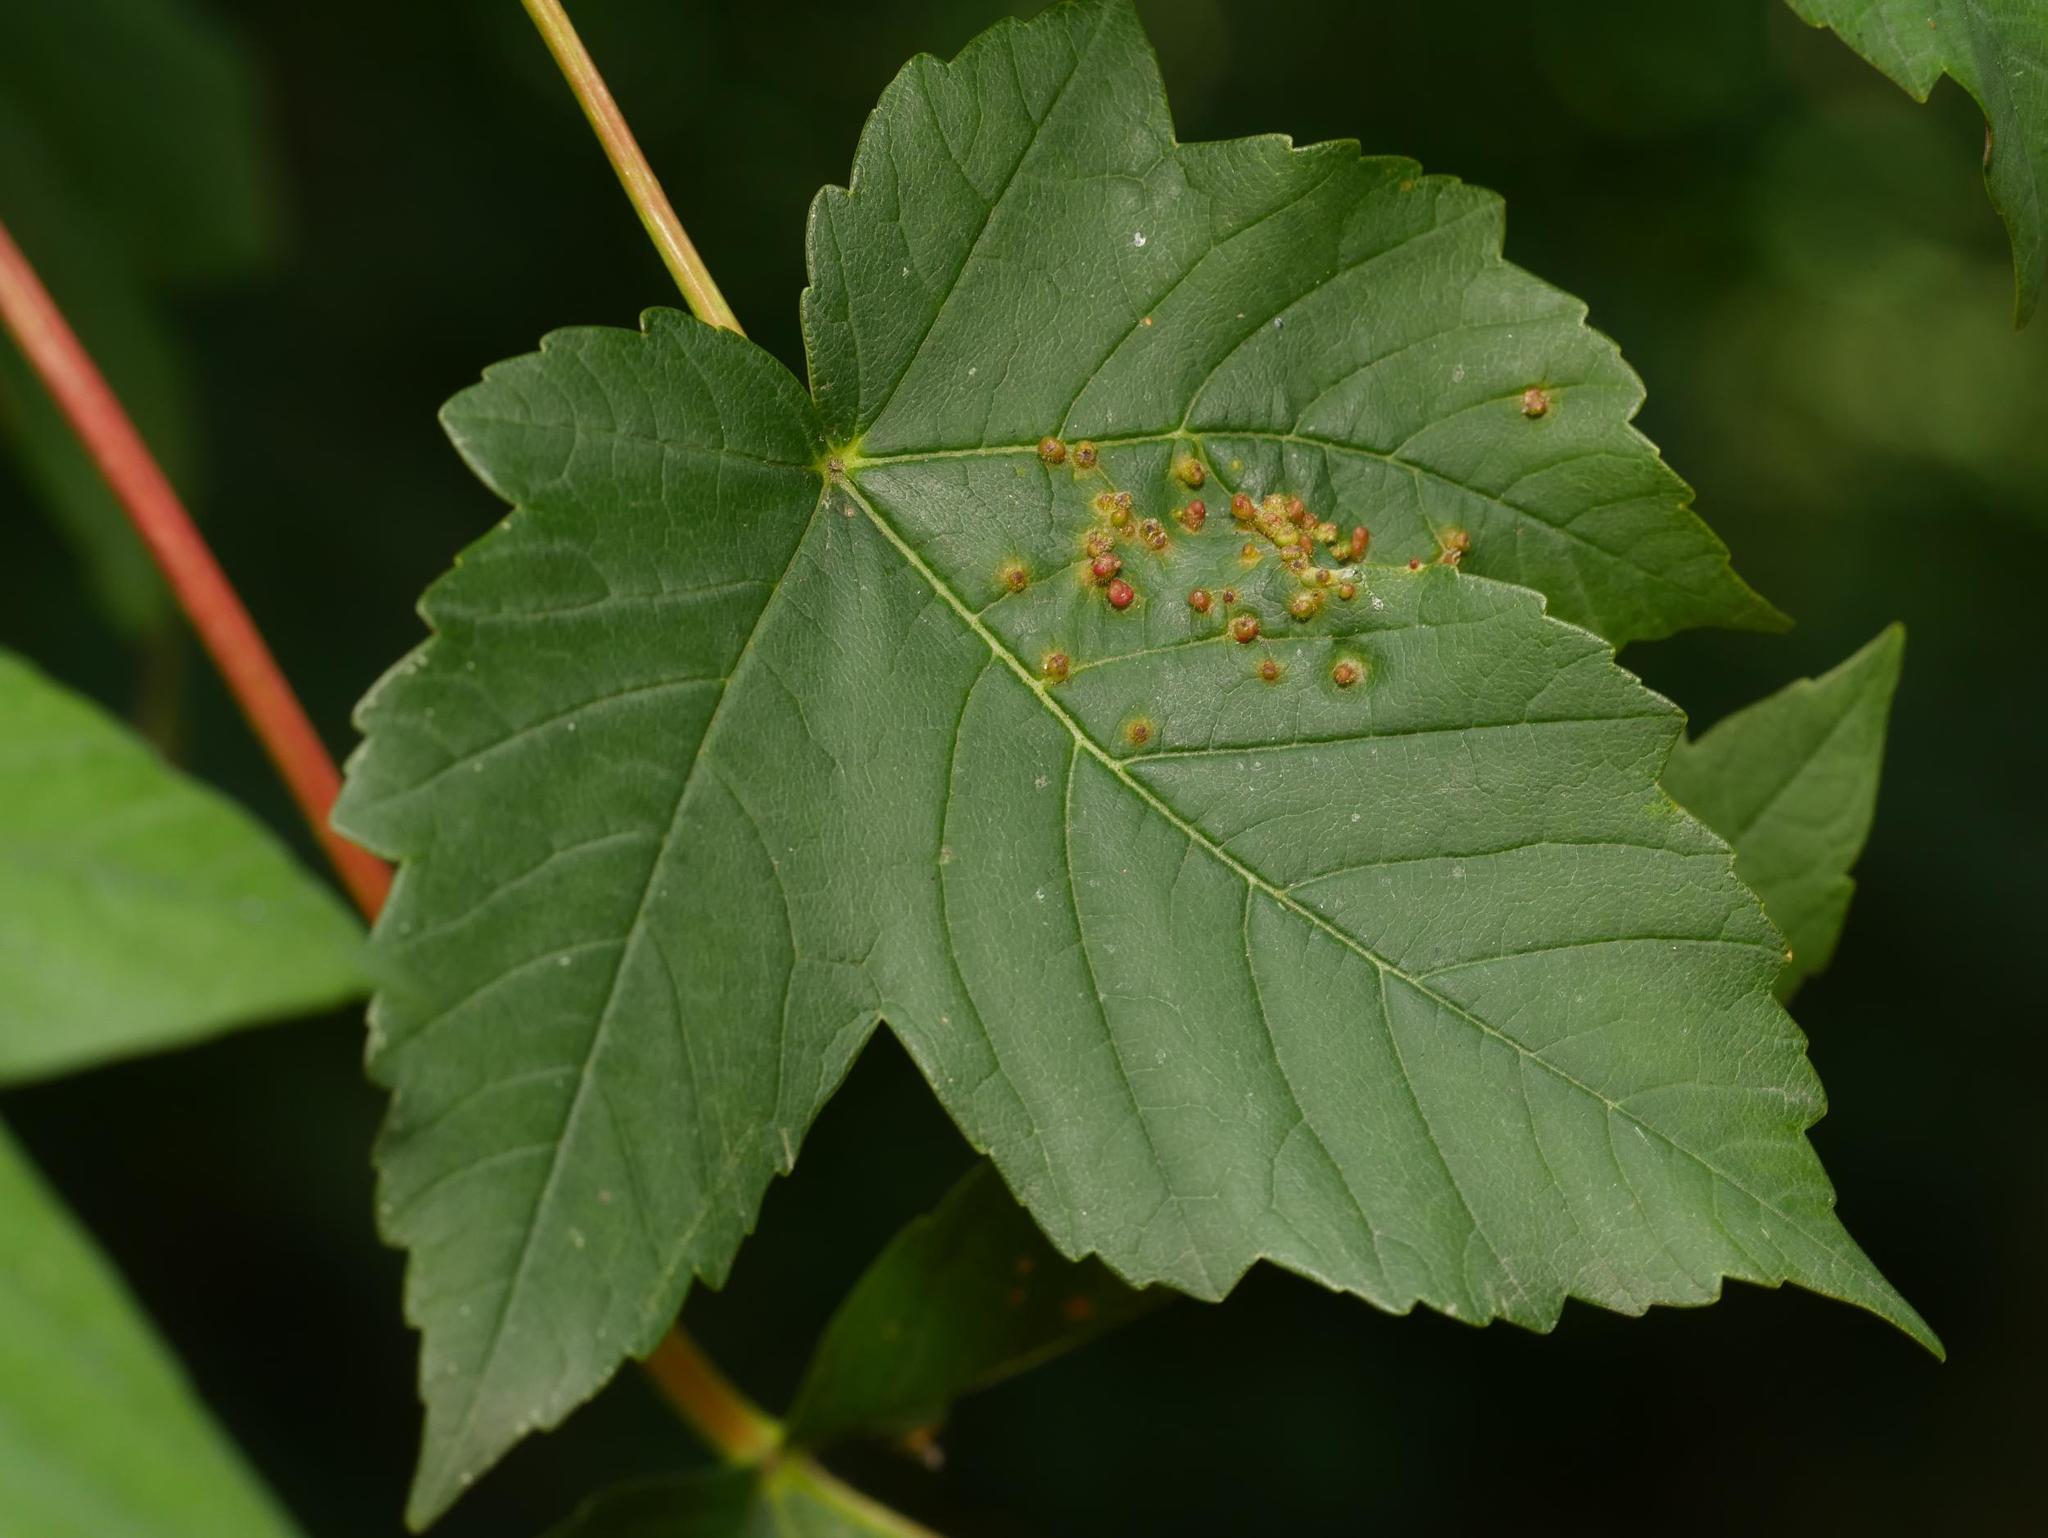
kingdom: Animalia
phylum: Arthropoda
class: Arachnida
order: Trombidiformes
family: Eriophyidae
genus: Aceria
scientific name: Aceria cephaloneus
